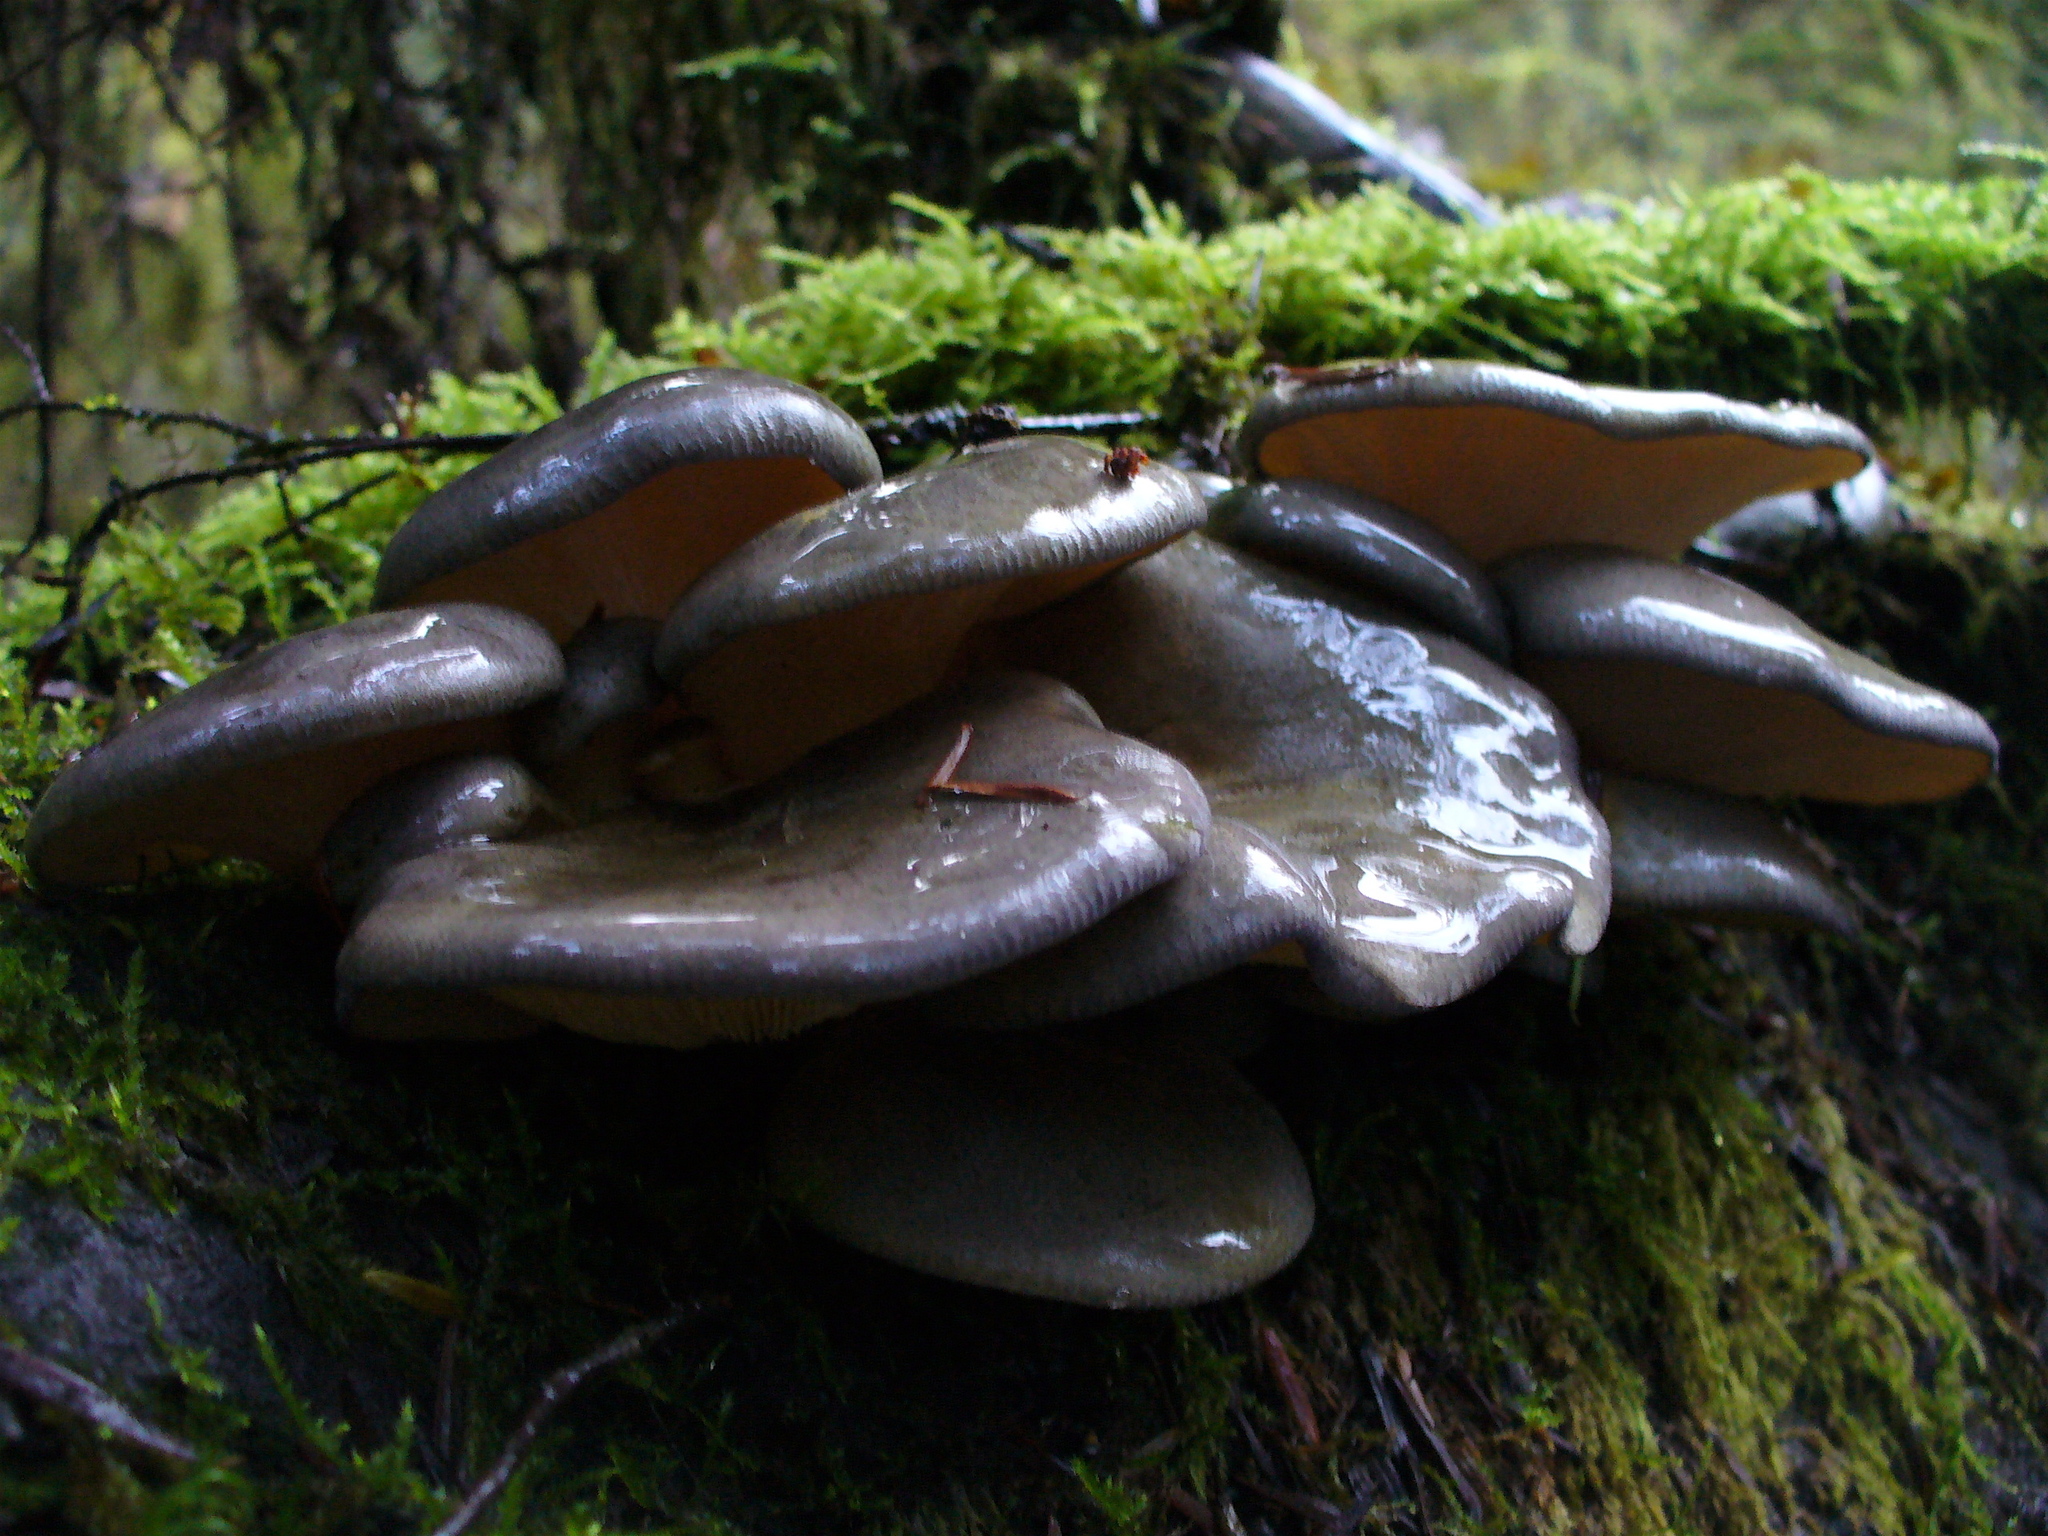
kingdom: Fungi
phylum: Basidiomycota
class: Agaricomycetes
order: Agaricales
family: Sarcomyxaceae
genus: Sarcomyxa
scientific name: Sarcomyxa serotina
